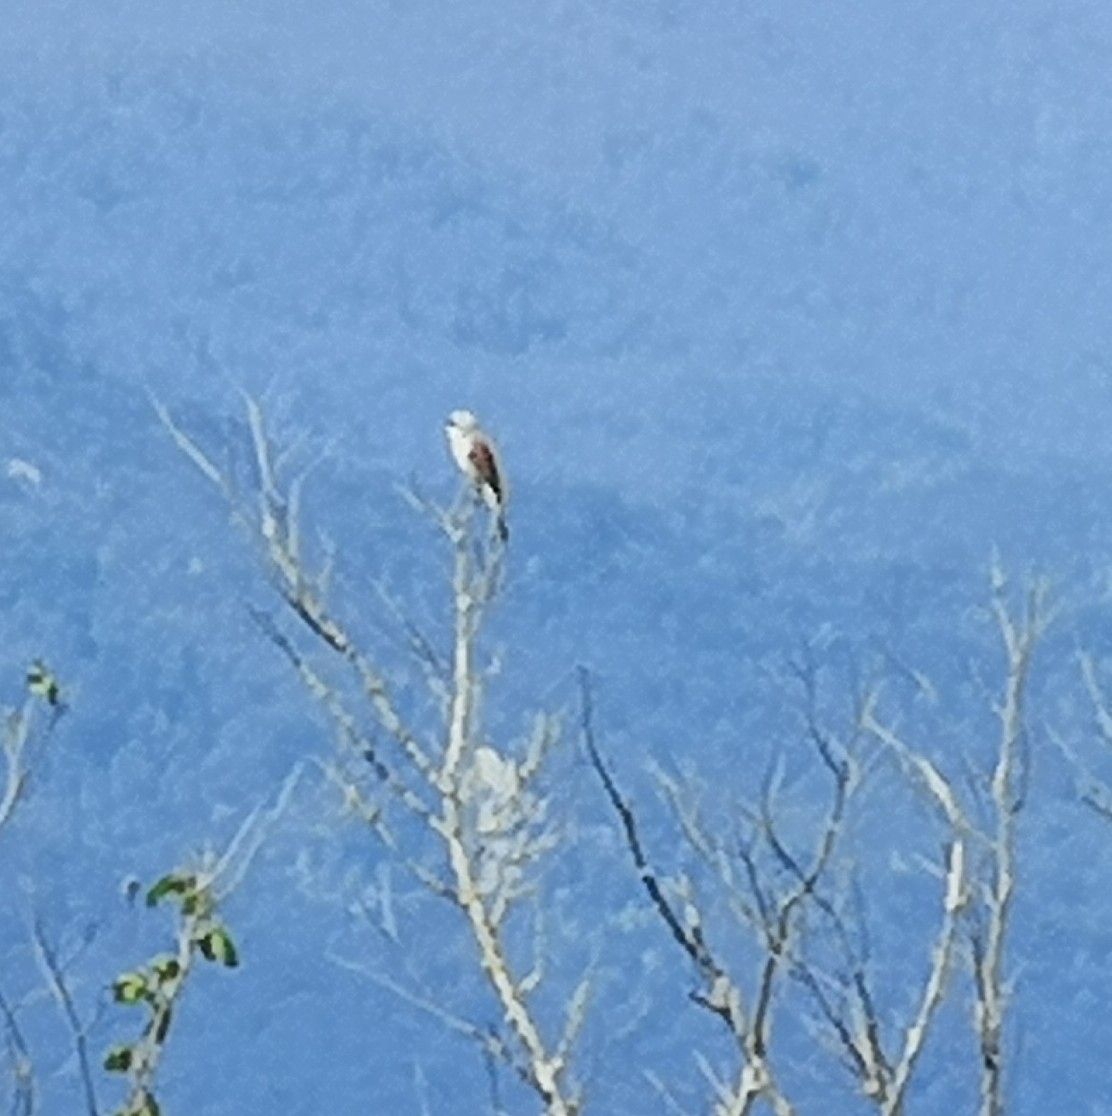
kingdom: Animalia
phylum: Chordata
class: Aves
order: Passeriformes
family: Laniidae
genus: Lanius
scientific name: Lanius collurio
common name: Red-backed shrike
